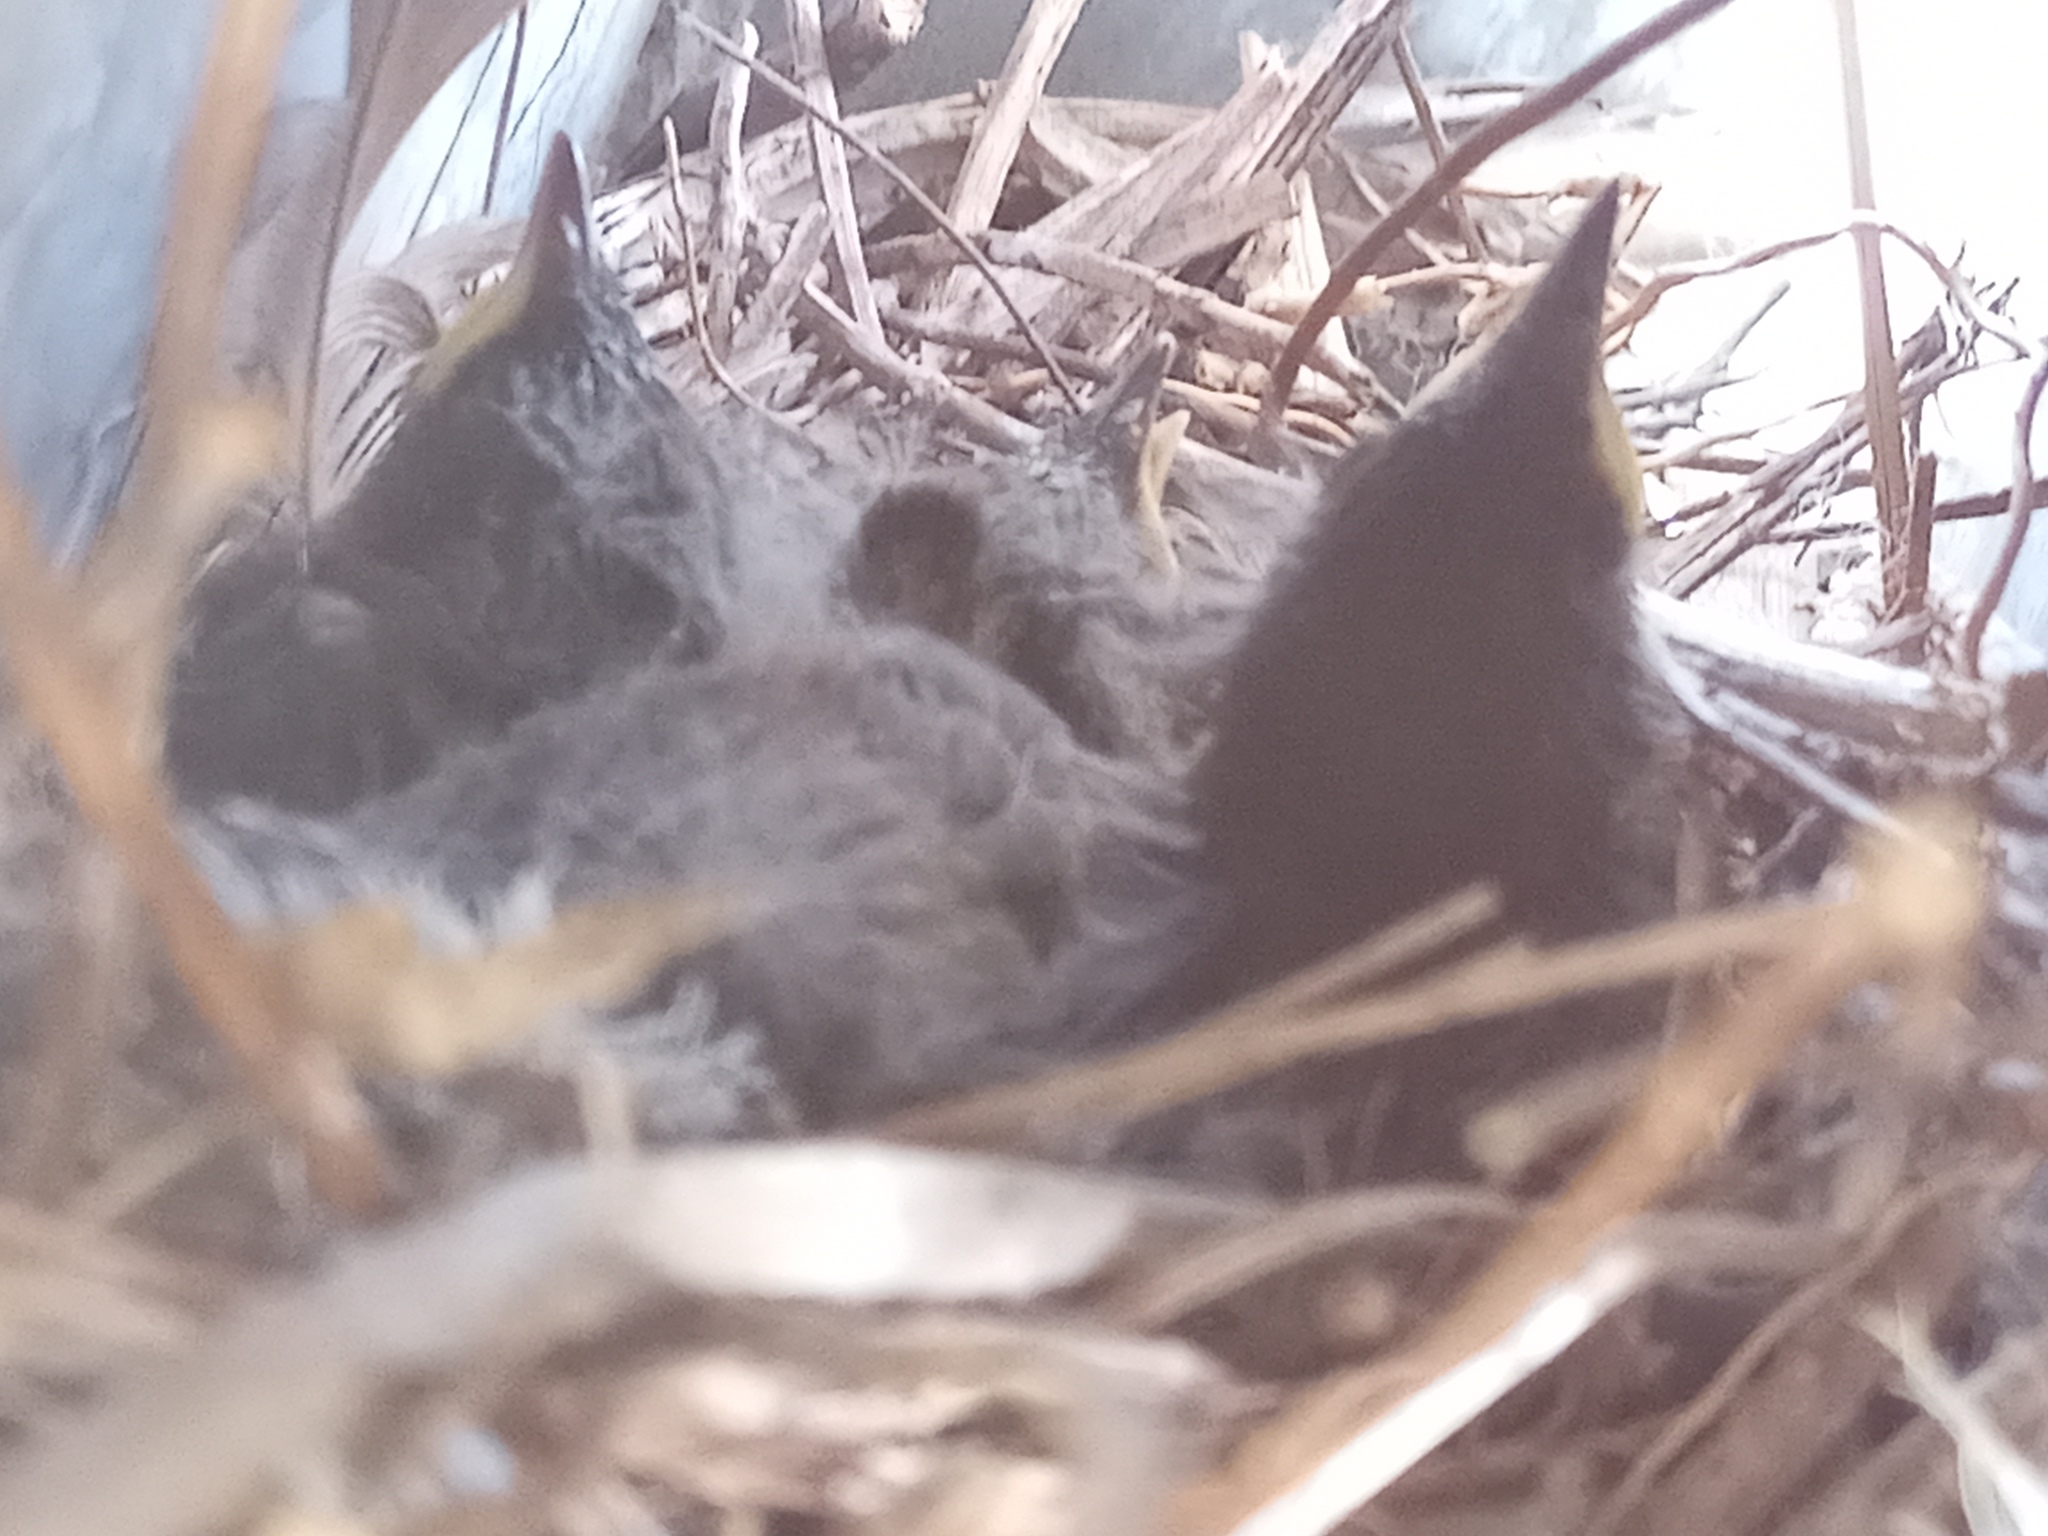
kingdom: Animalia
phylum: Chordata
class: Aves
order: Passeriformes
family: Troglodytidae
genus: Troglodytes
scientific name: Troglodytes aedon
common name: House wren
